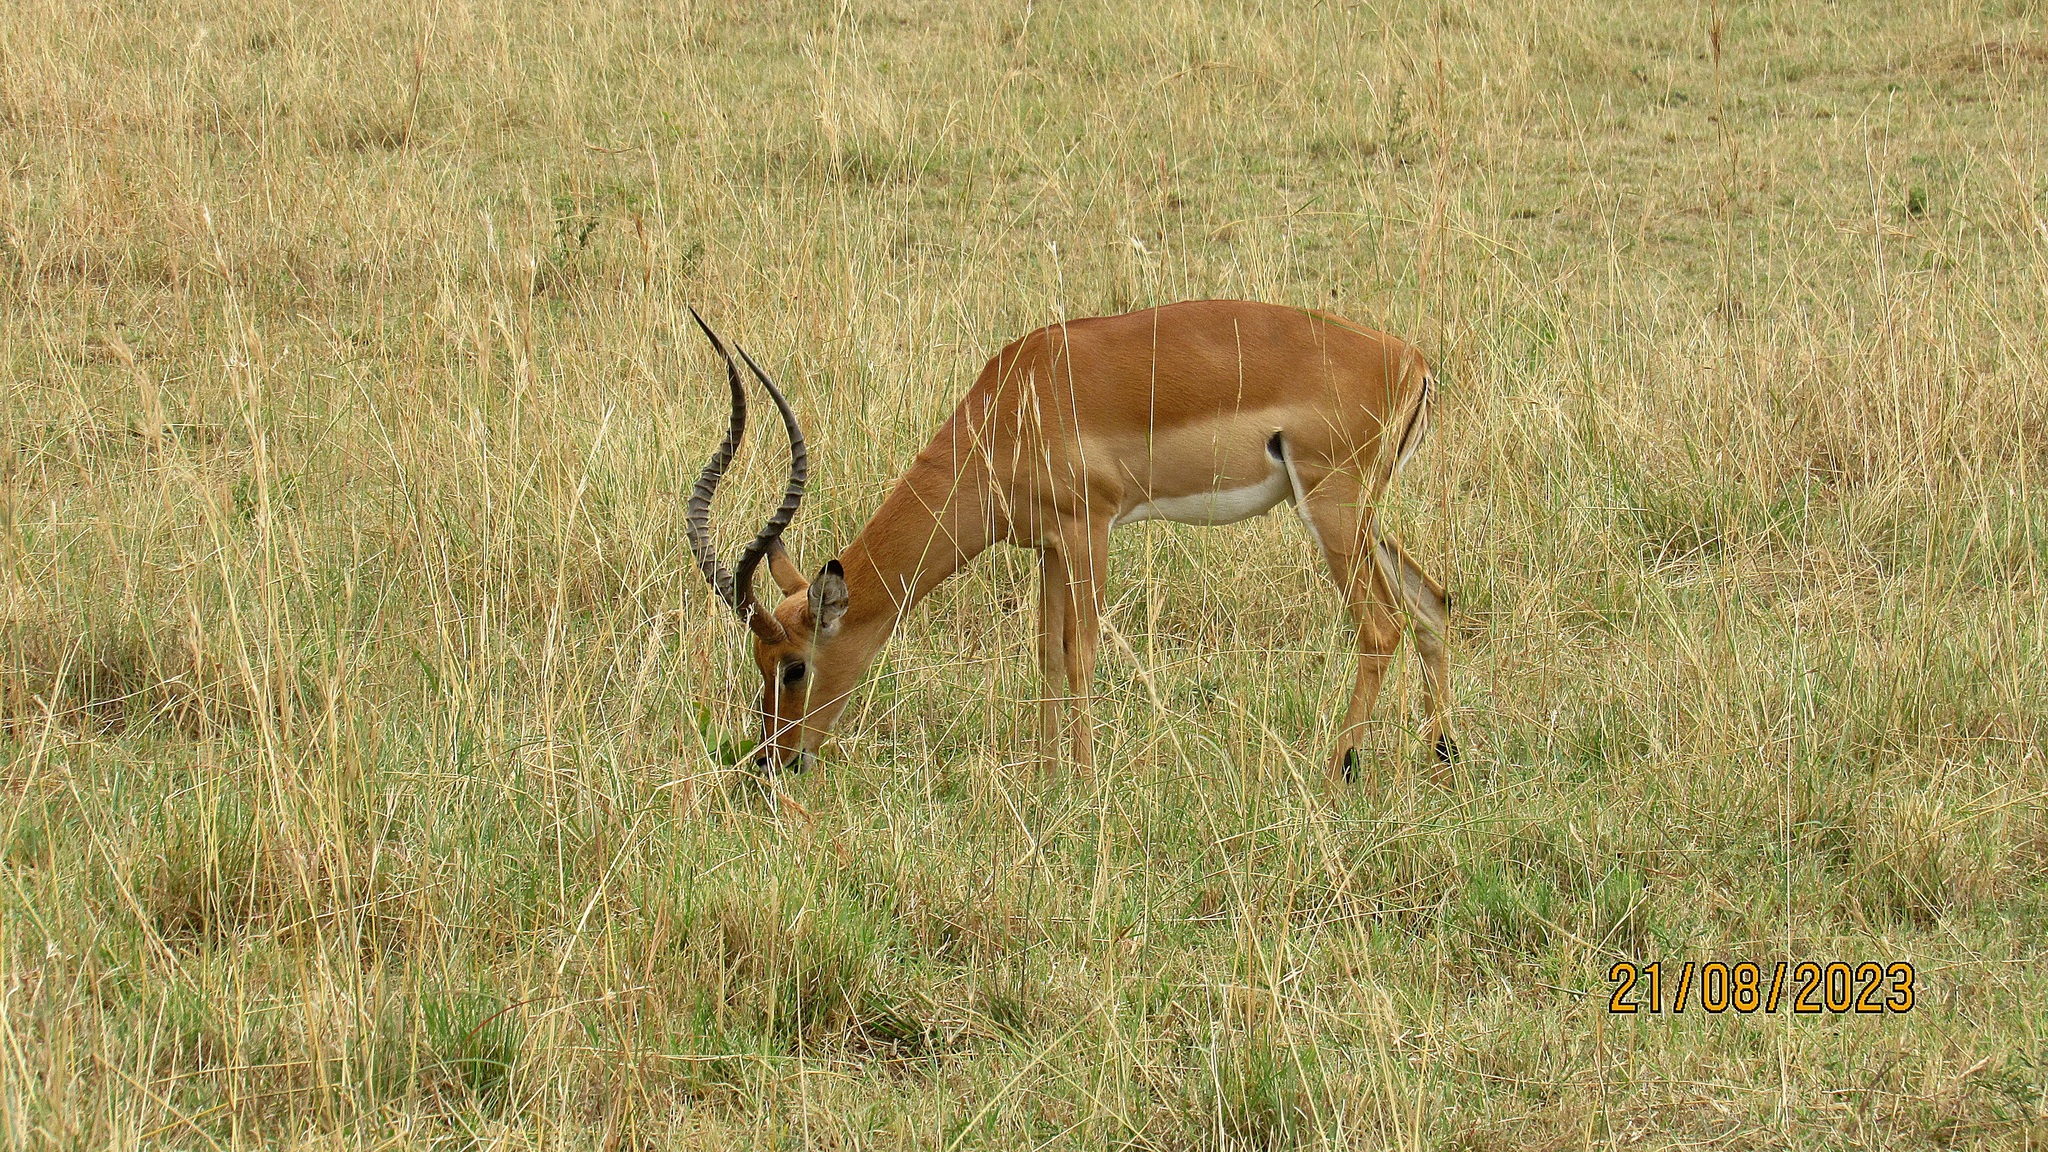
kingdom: Animalia
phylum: Chordata
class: Mammalia
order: Artiodactyla
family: Bovidae
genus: Aepyceros
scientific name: Aepyceros melampus
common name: Impala
